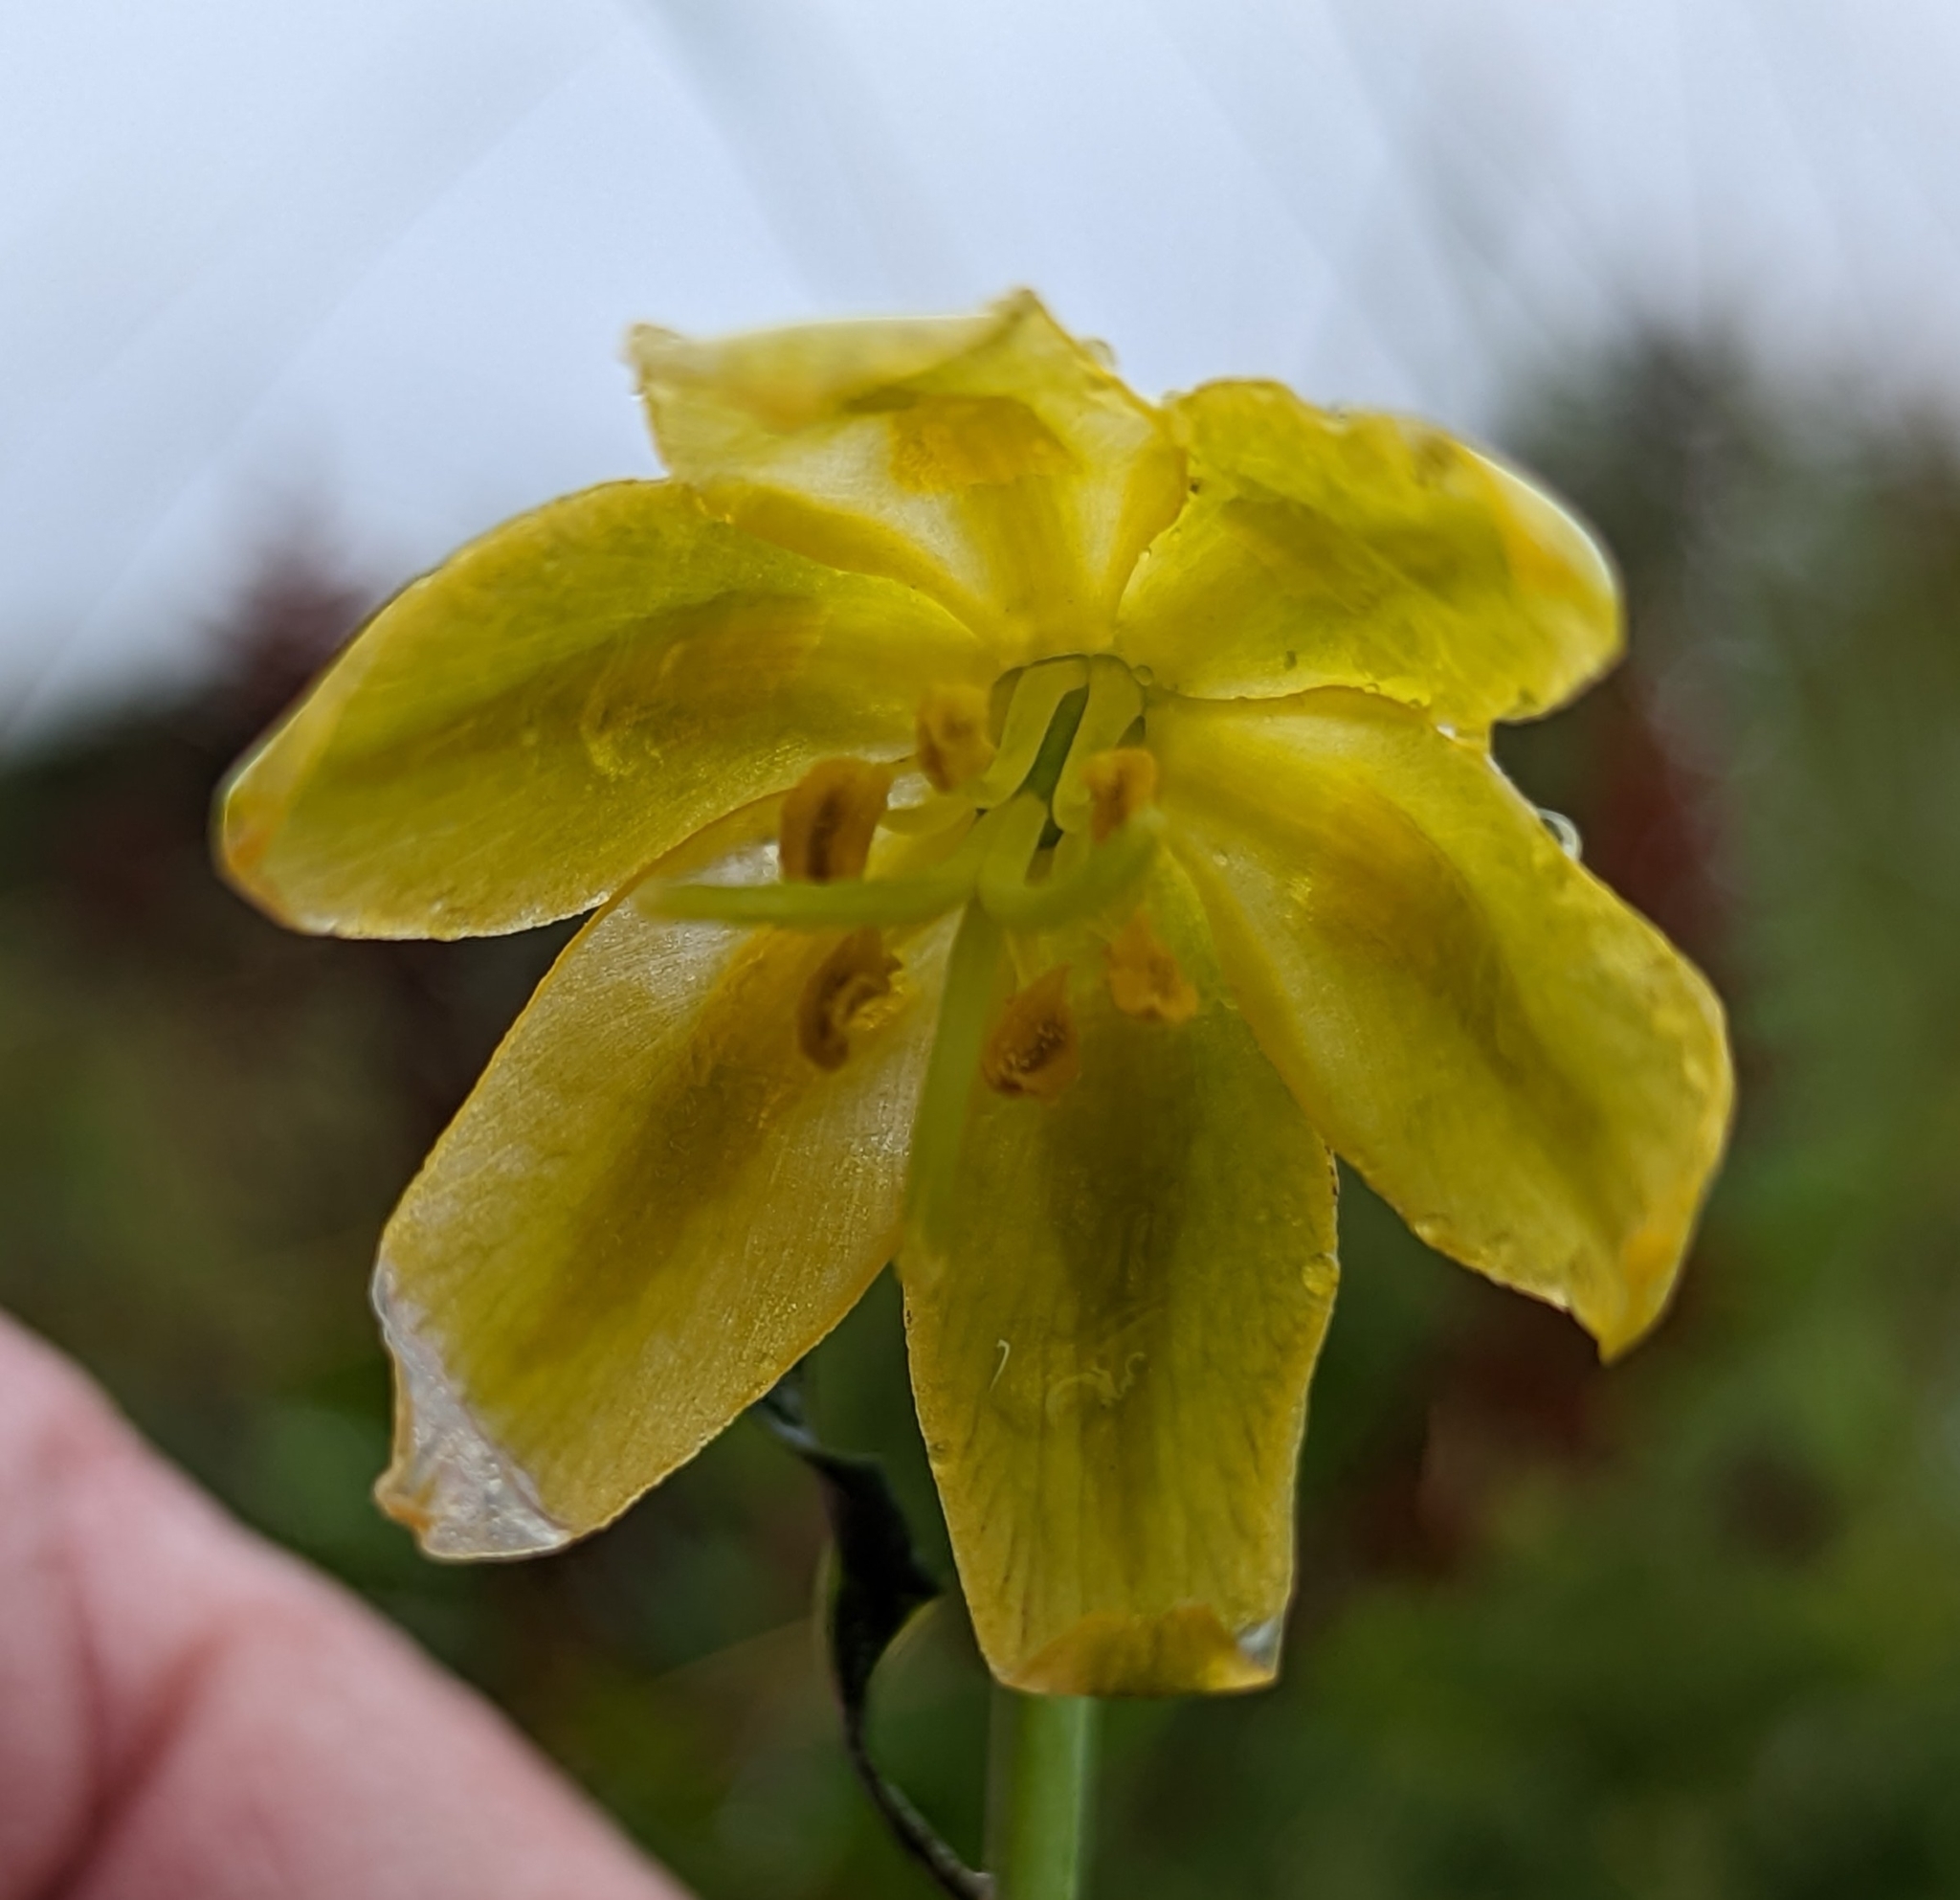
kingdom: Plantae
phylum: Tracheophyta
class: Liliopsida
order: Liliales
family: Liliaceae
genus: Fritillaria
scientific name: Fritillaria affinis
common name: Ojai fritillary
